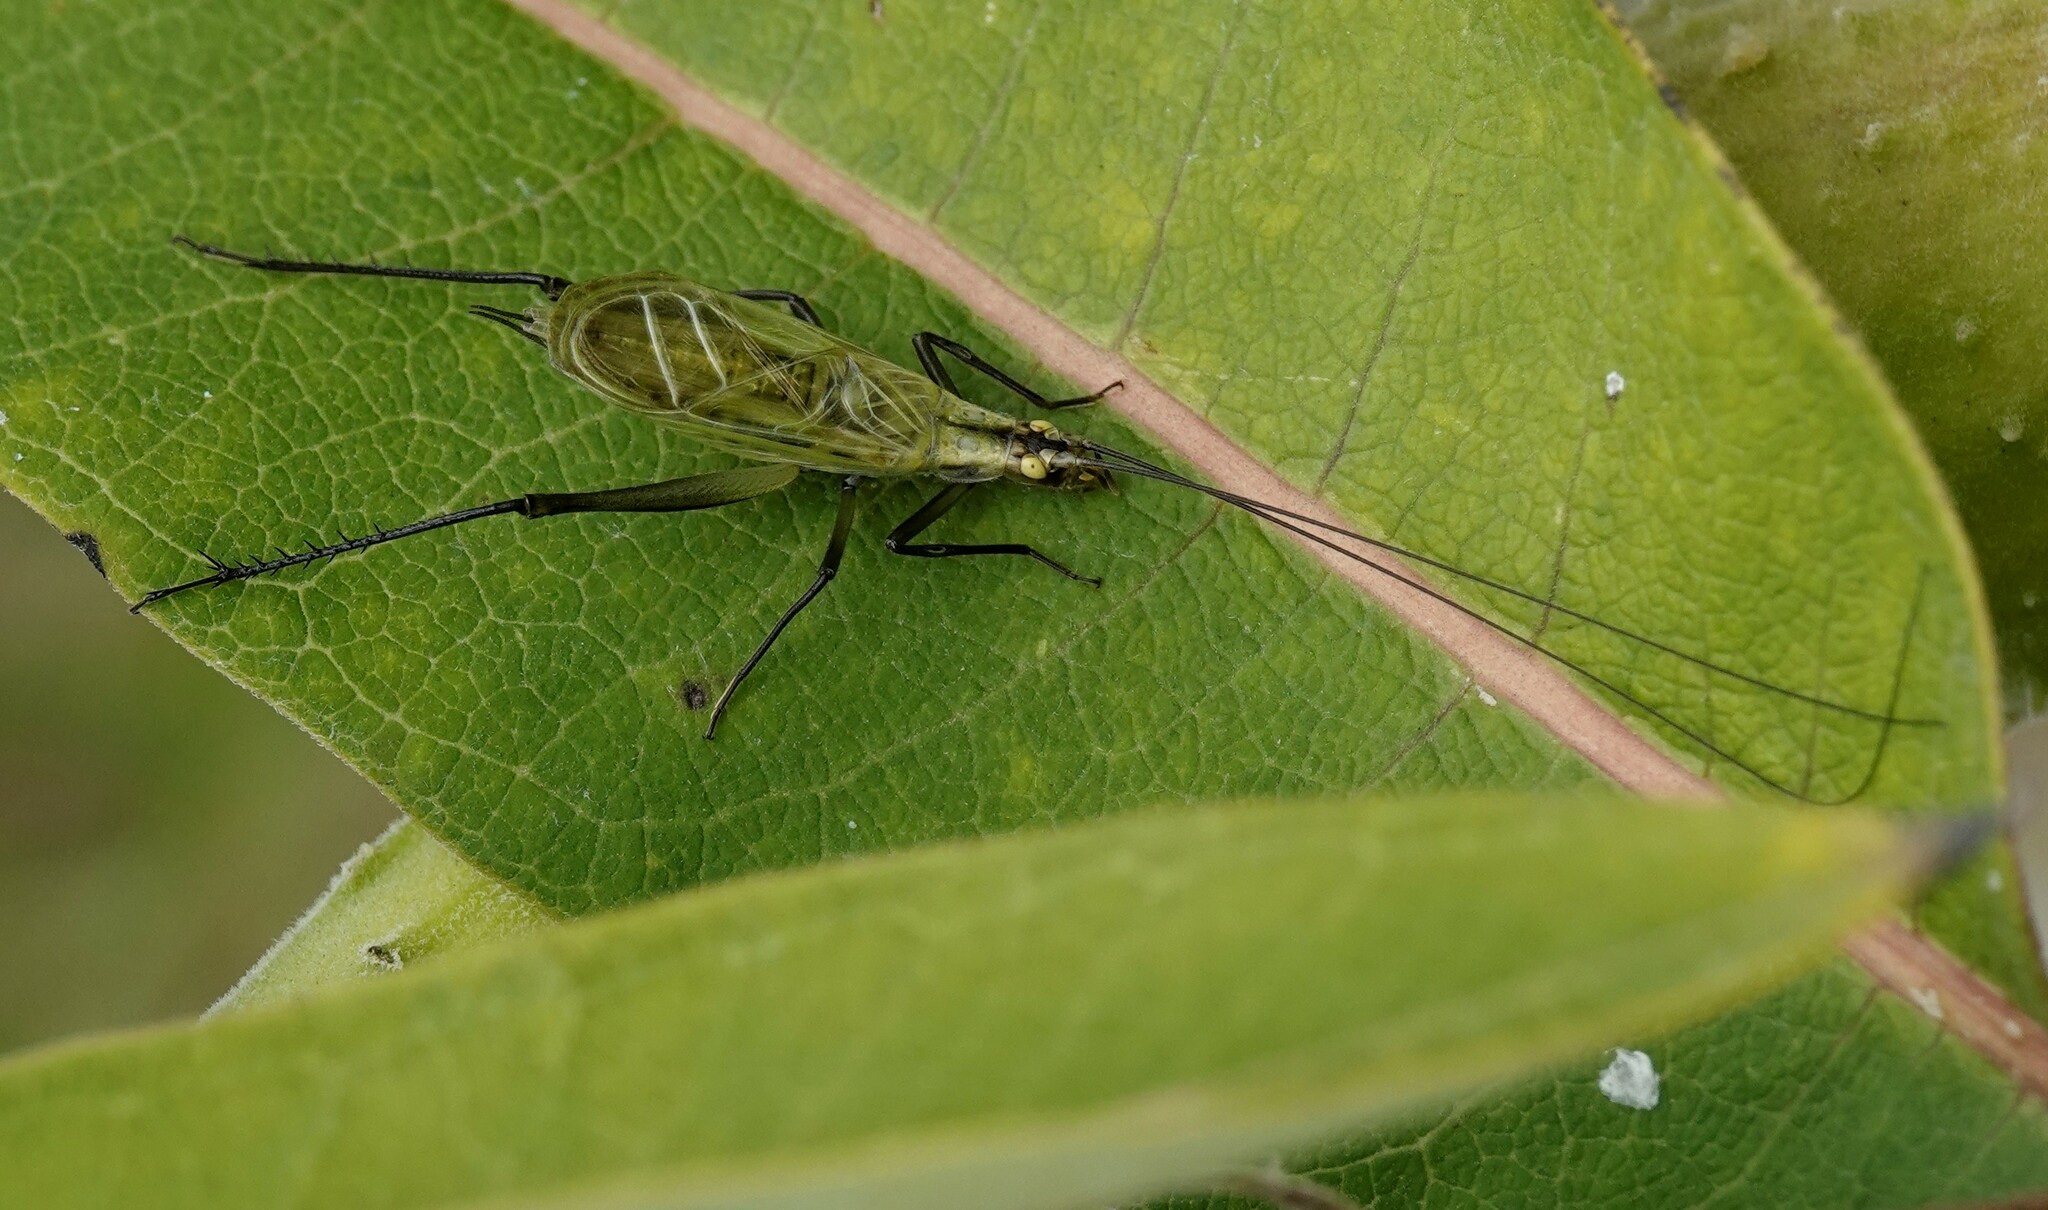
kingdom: Animalia
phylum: Arthropoda
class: Insecta
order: Orthoptera
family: Gryllidae
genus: Oecanthus
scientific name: Oecanthus nigricornis
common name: Black-horned tree cricket
